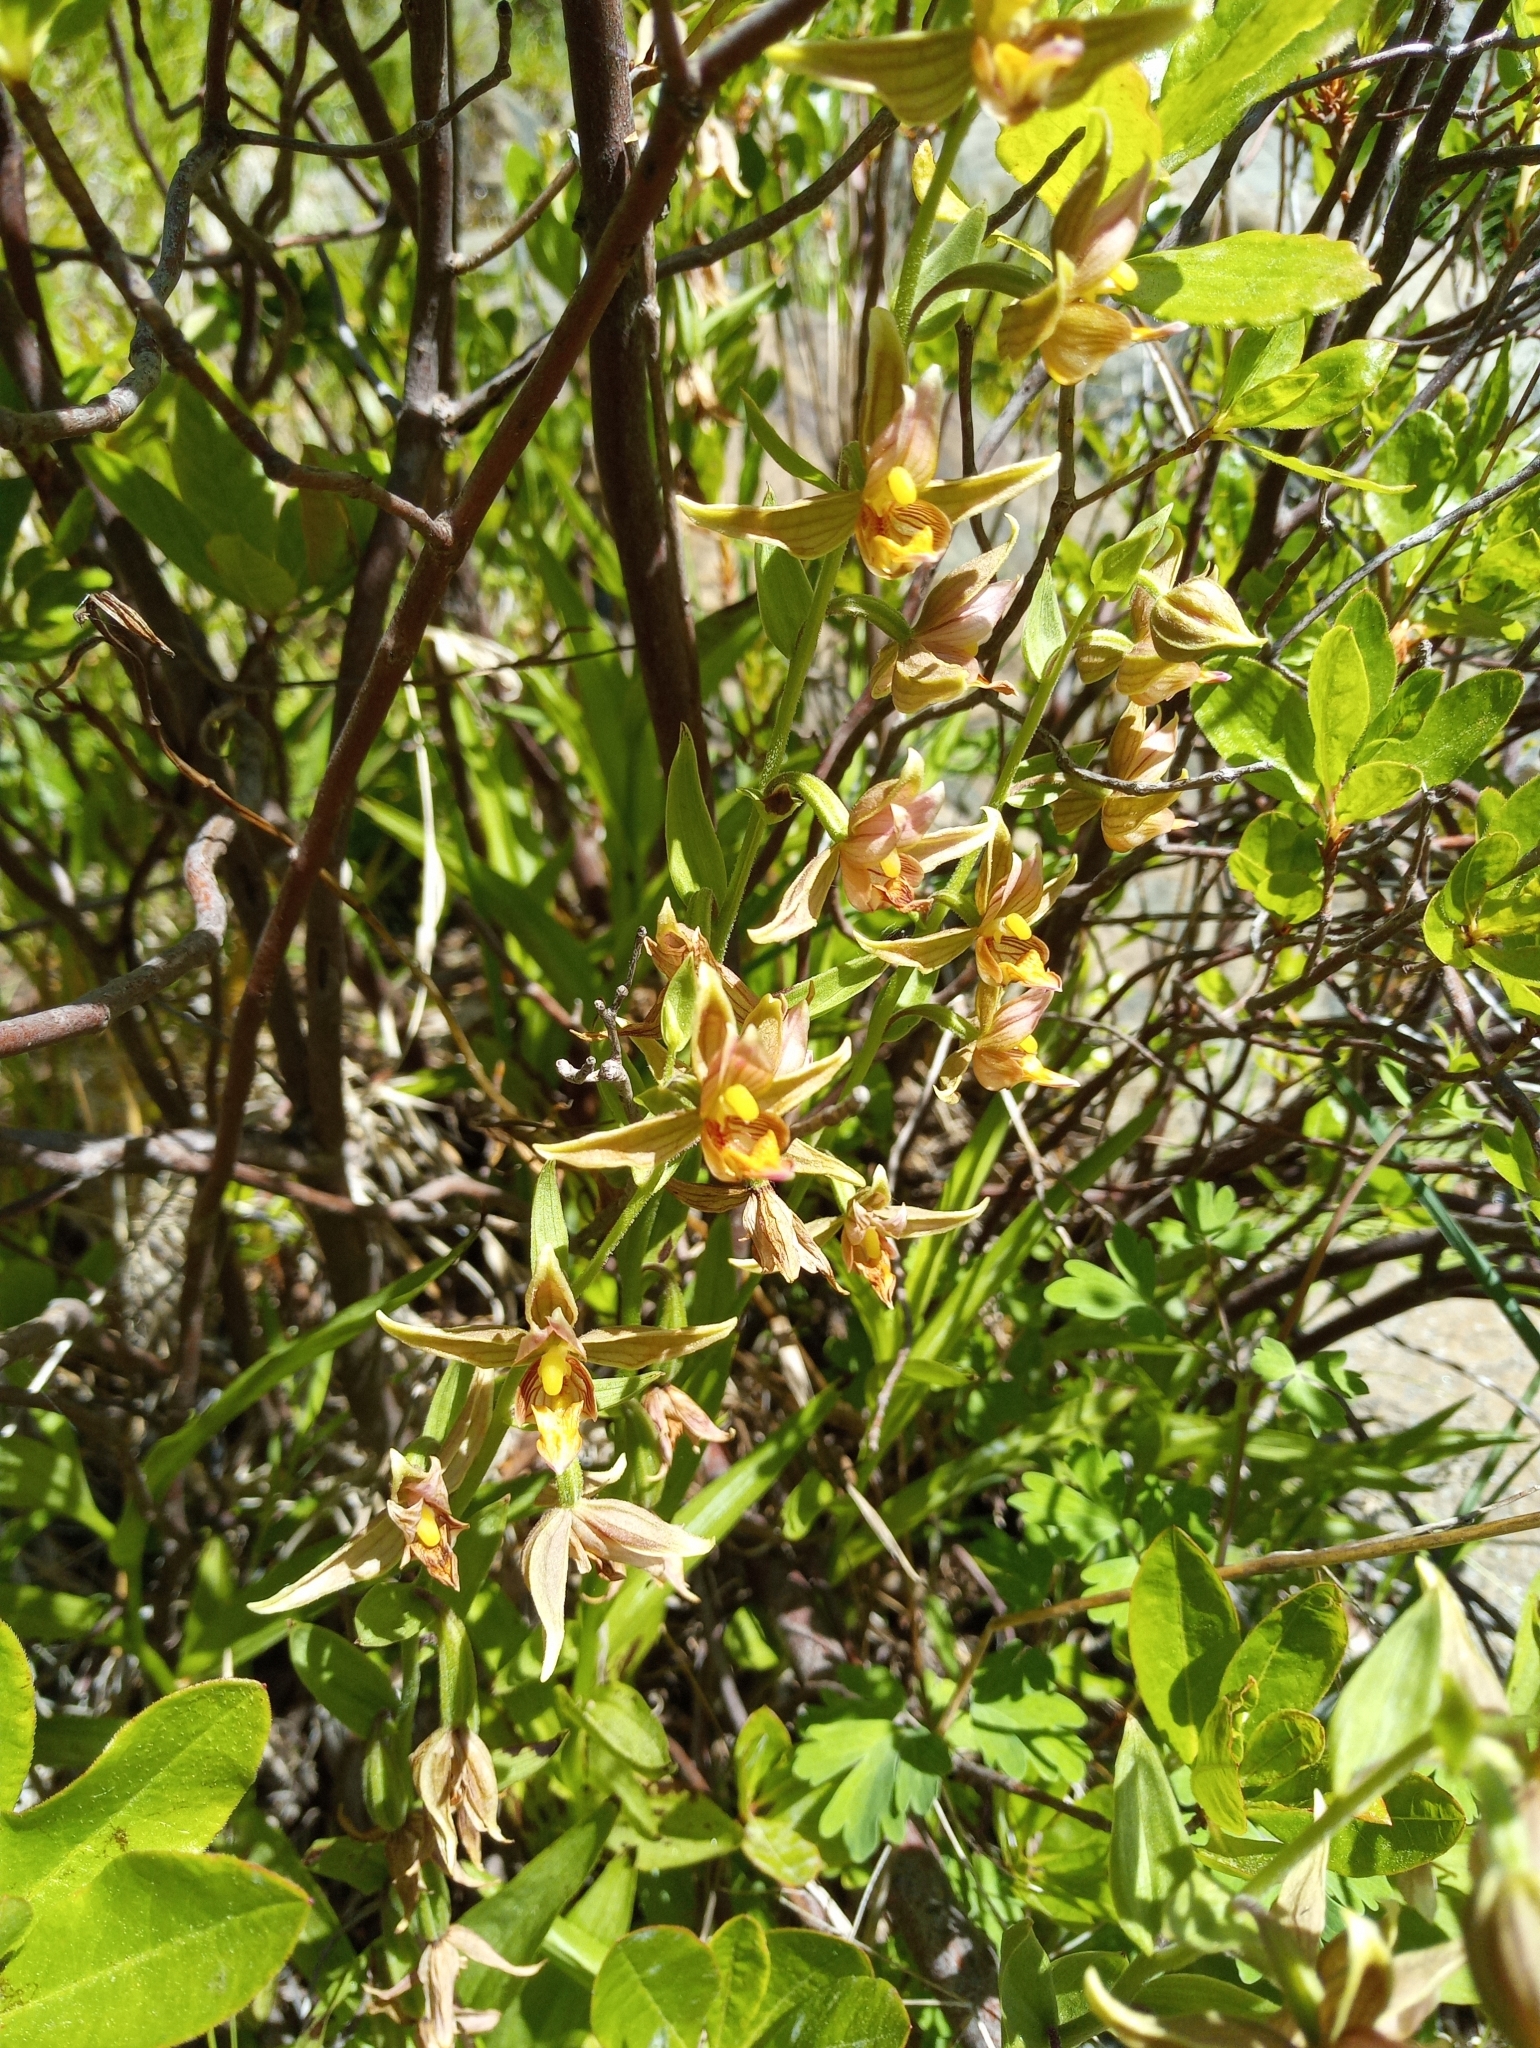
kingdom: Plantae
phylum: Tracheophyta
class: Liliopsida
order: Asparagales
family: Orchidaceae
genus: Epipactis
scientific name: Epipactis gigantea
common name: Chatterbox
